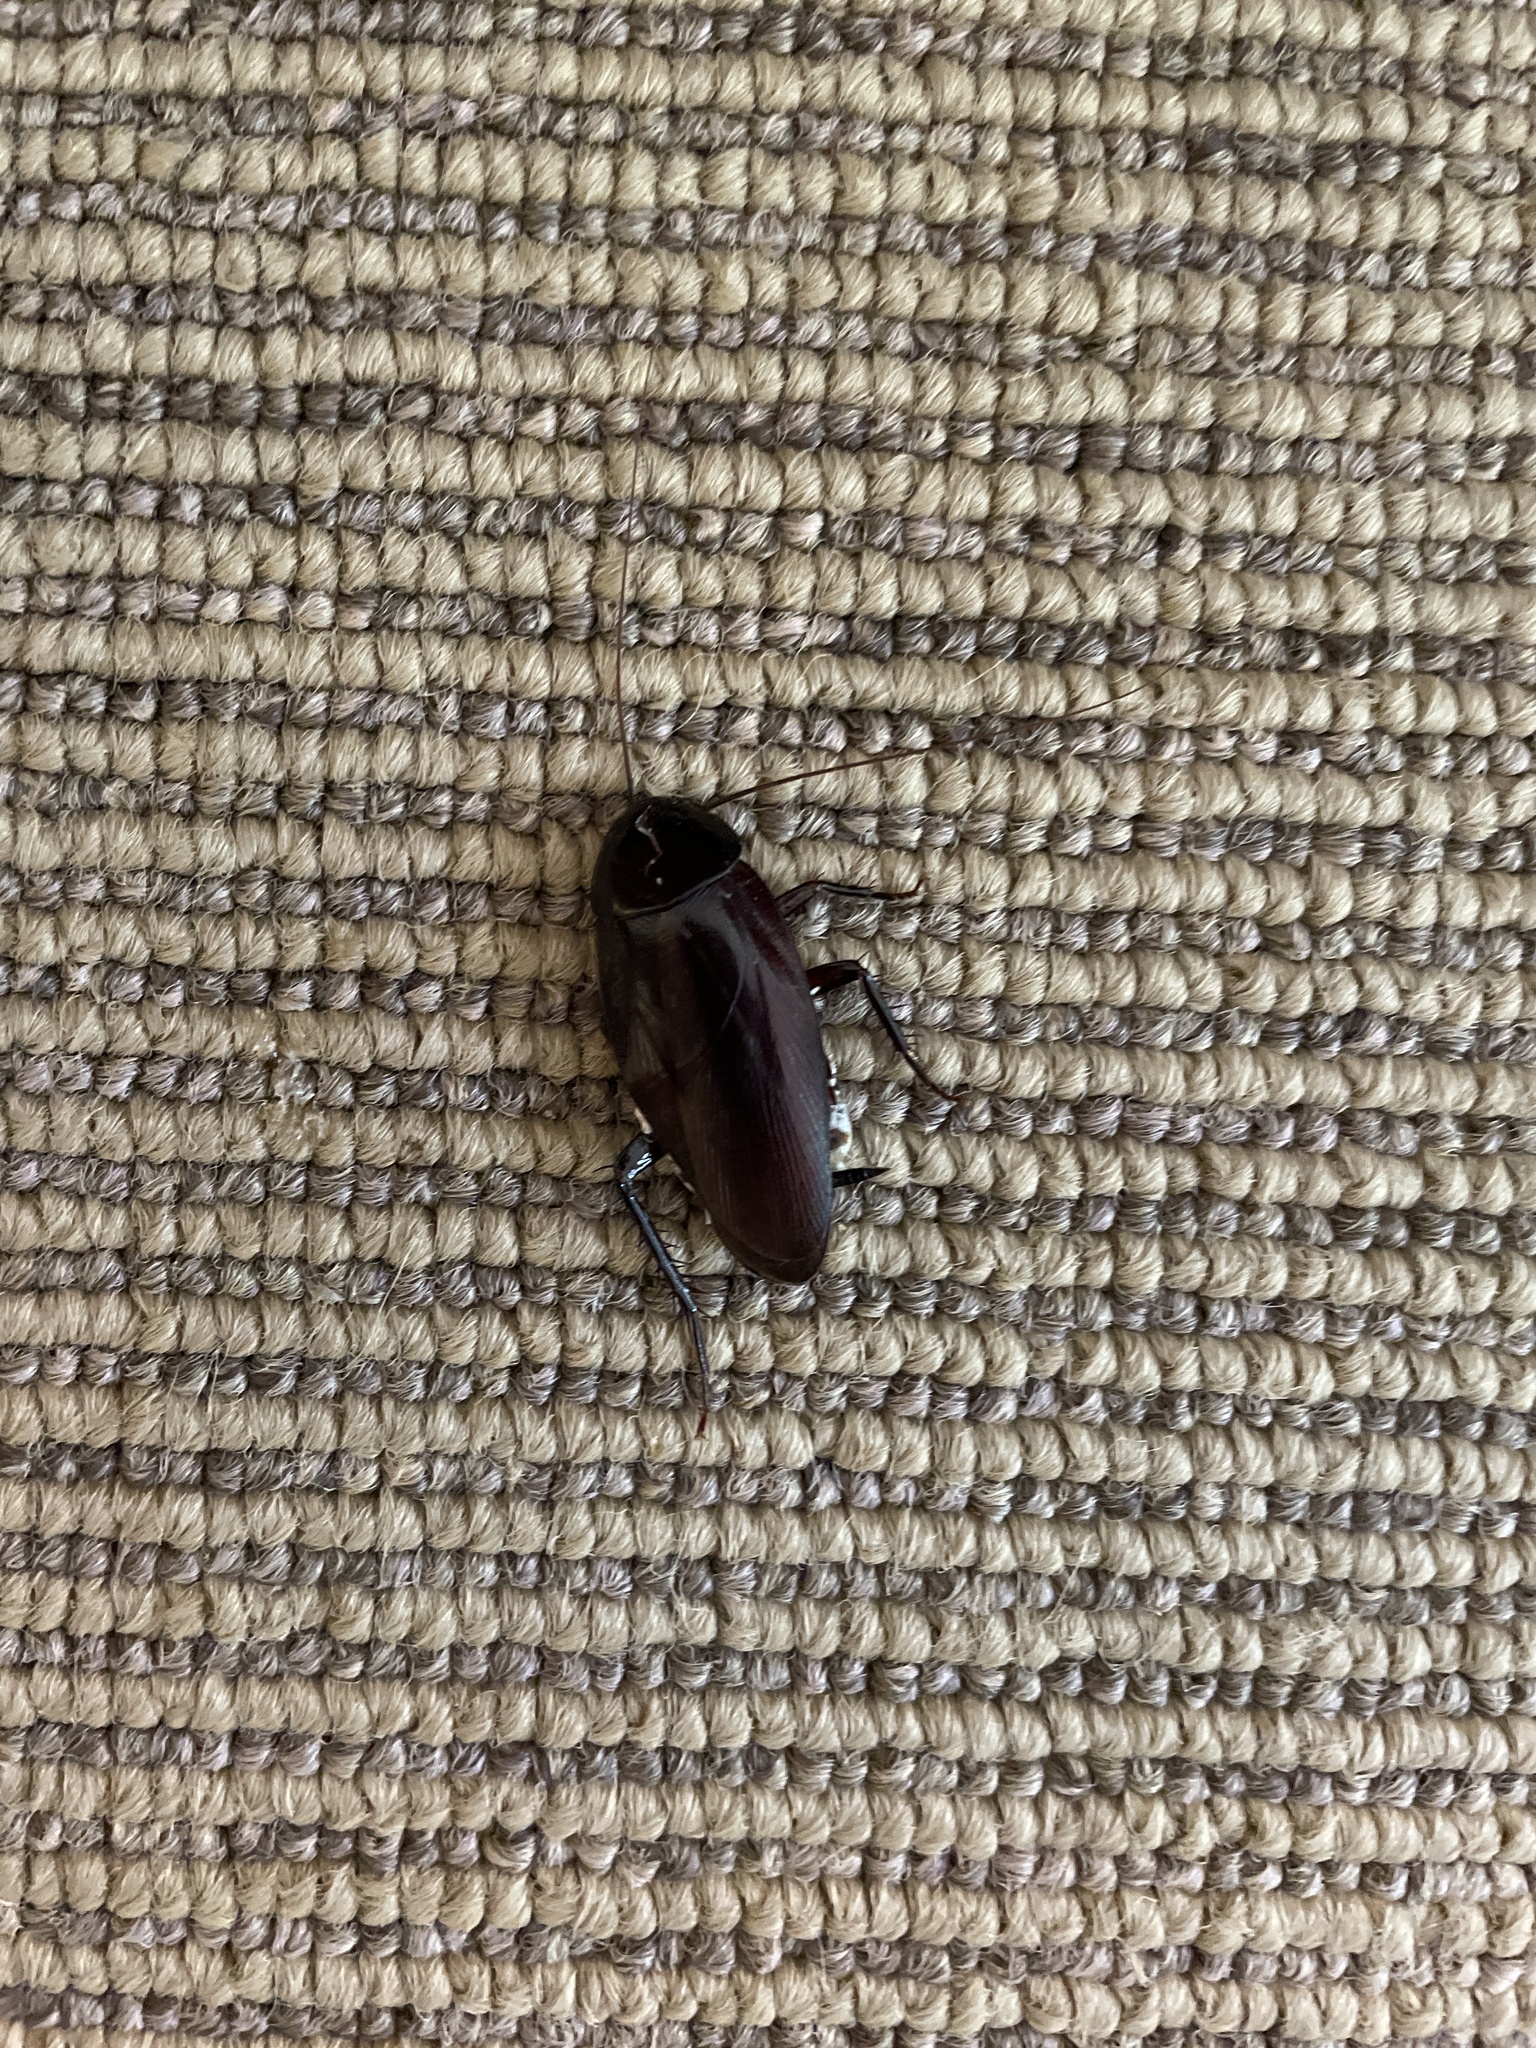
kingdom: Animalia
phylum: Arthropoda
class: Insecta
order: Blattodea
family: Blattidae
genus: Periplaneta
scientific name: Periplaneta fuliginosa
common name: Smokeybrown cockroad
